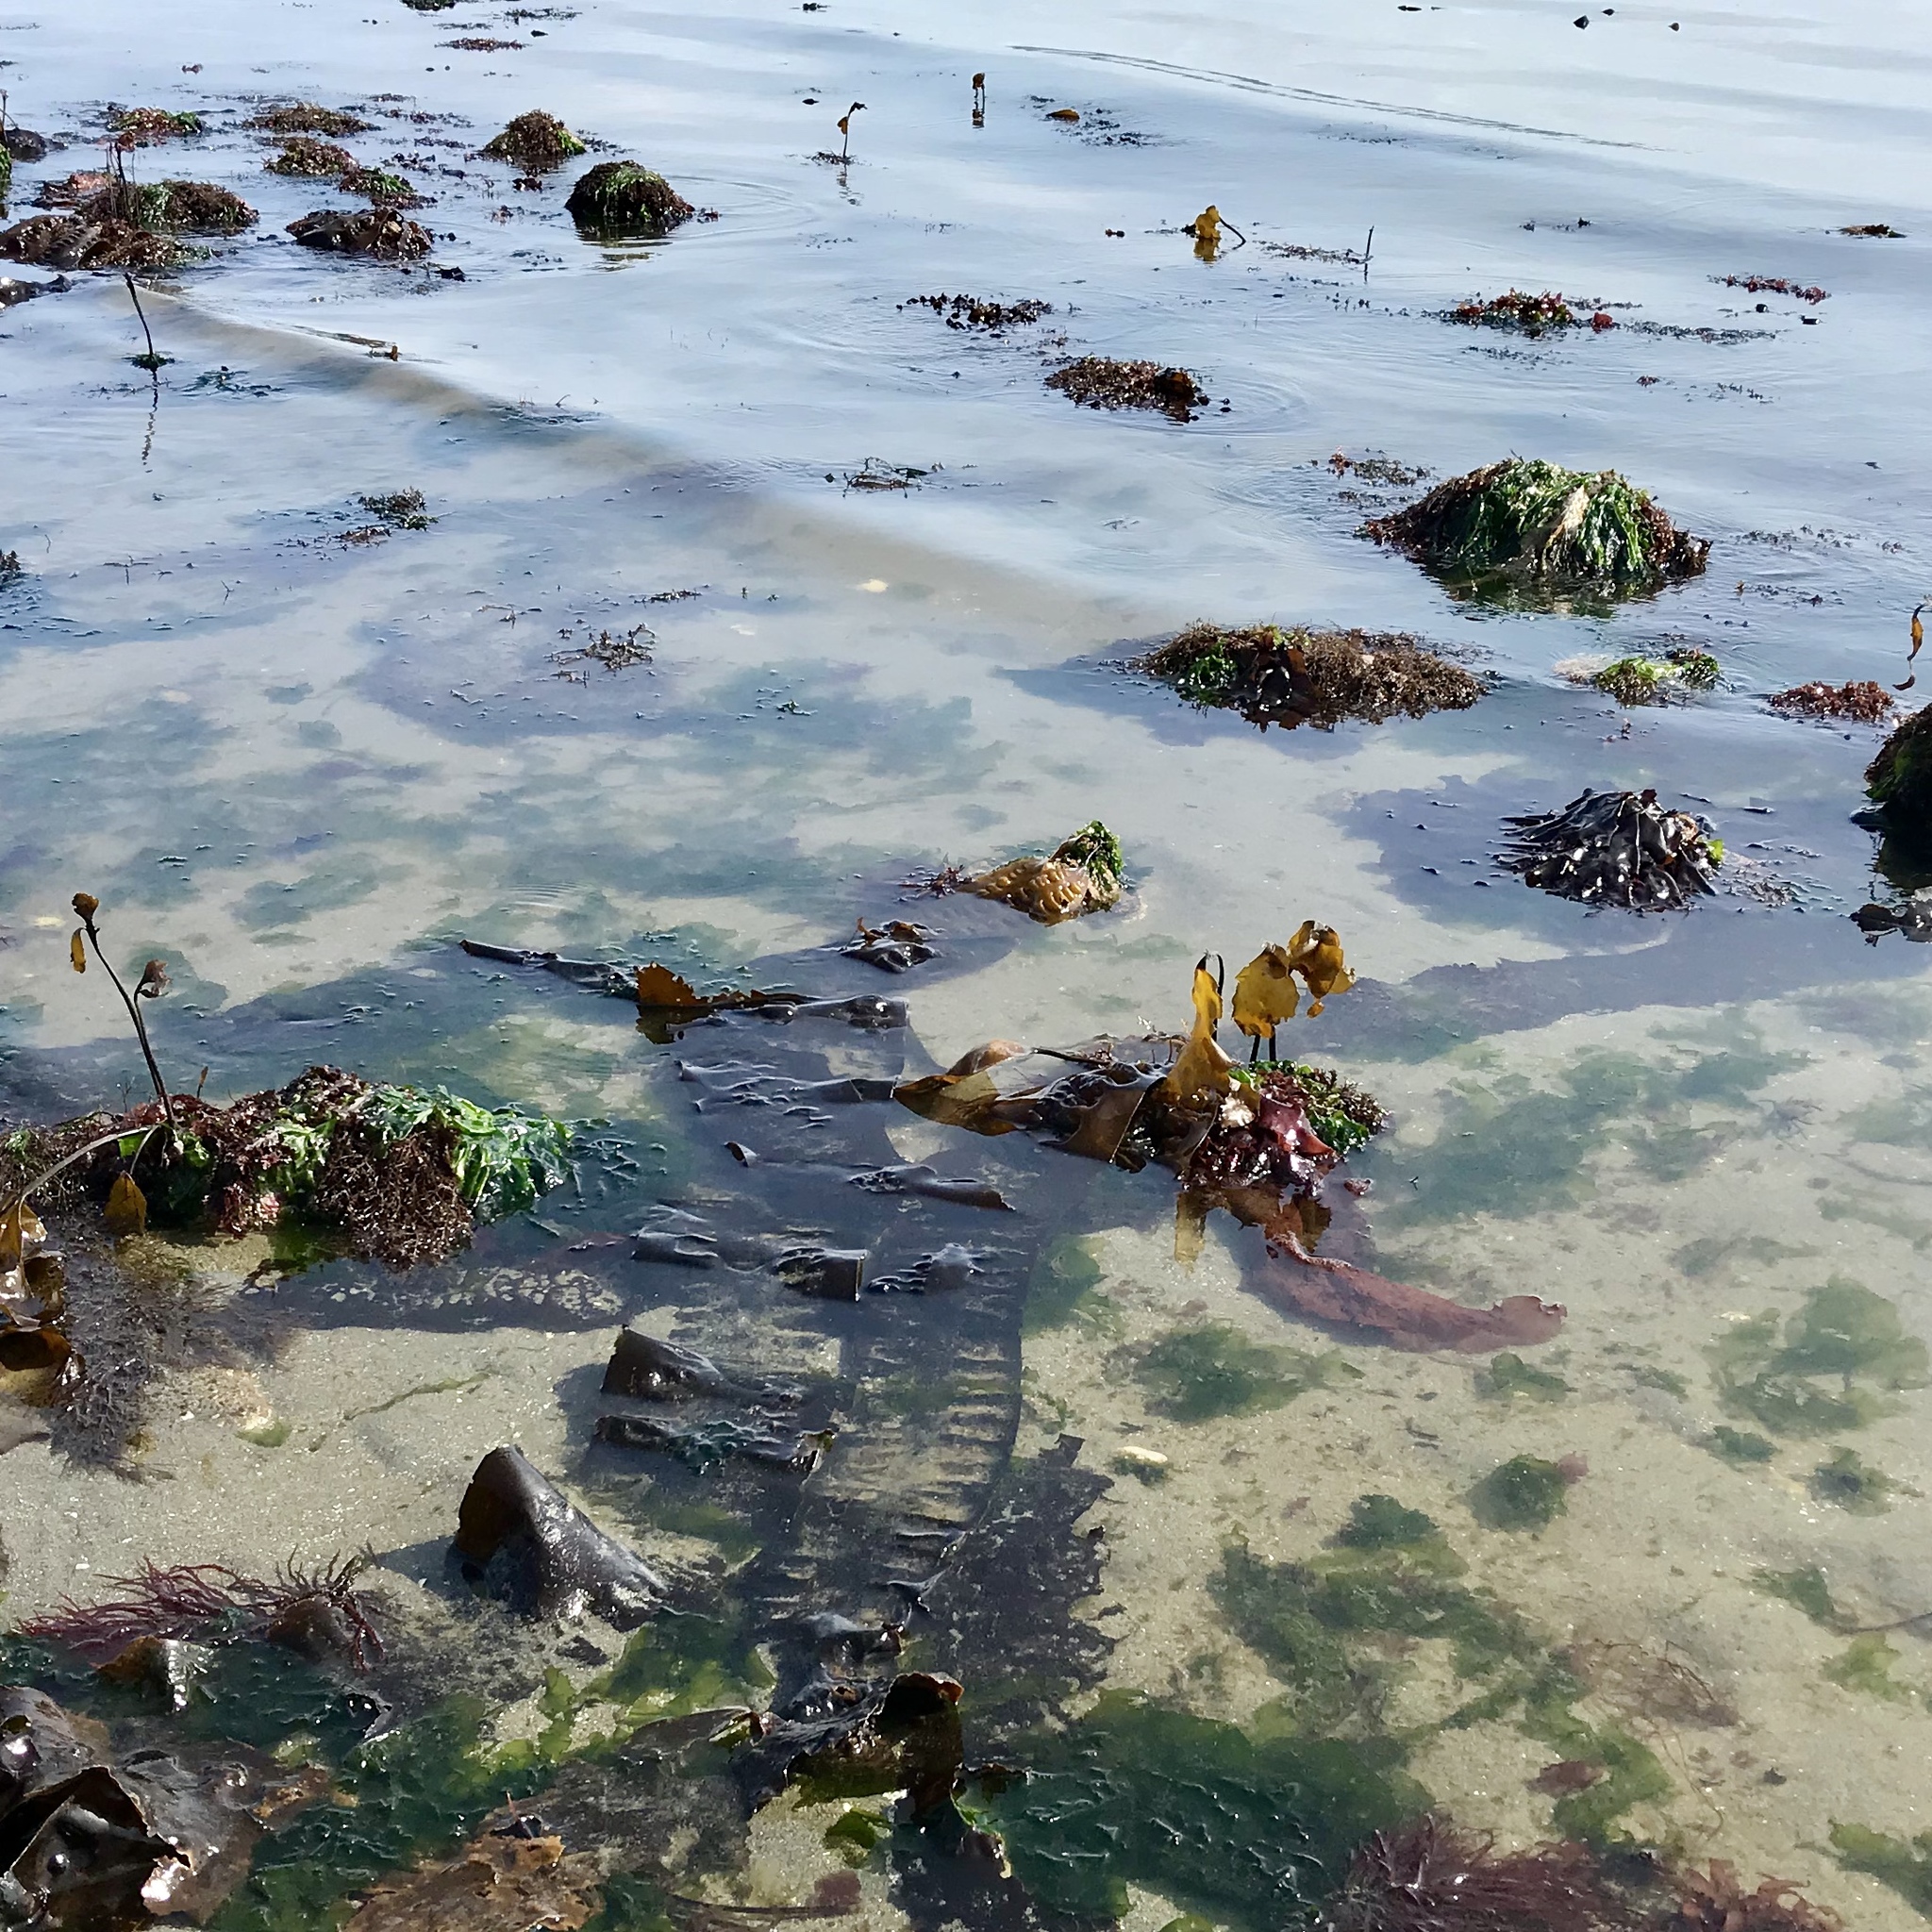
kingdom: Chromista
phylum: Ochrophyta
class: Phaeophyceae
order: Laminariales
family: Alariaceae
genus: Pterygophora
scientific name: Pterygophora californica
